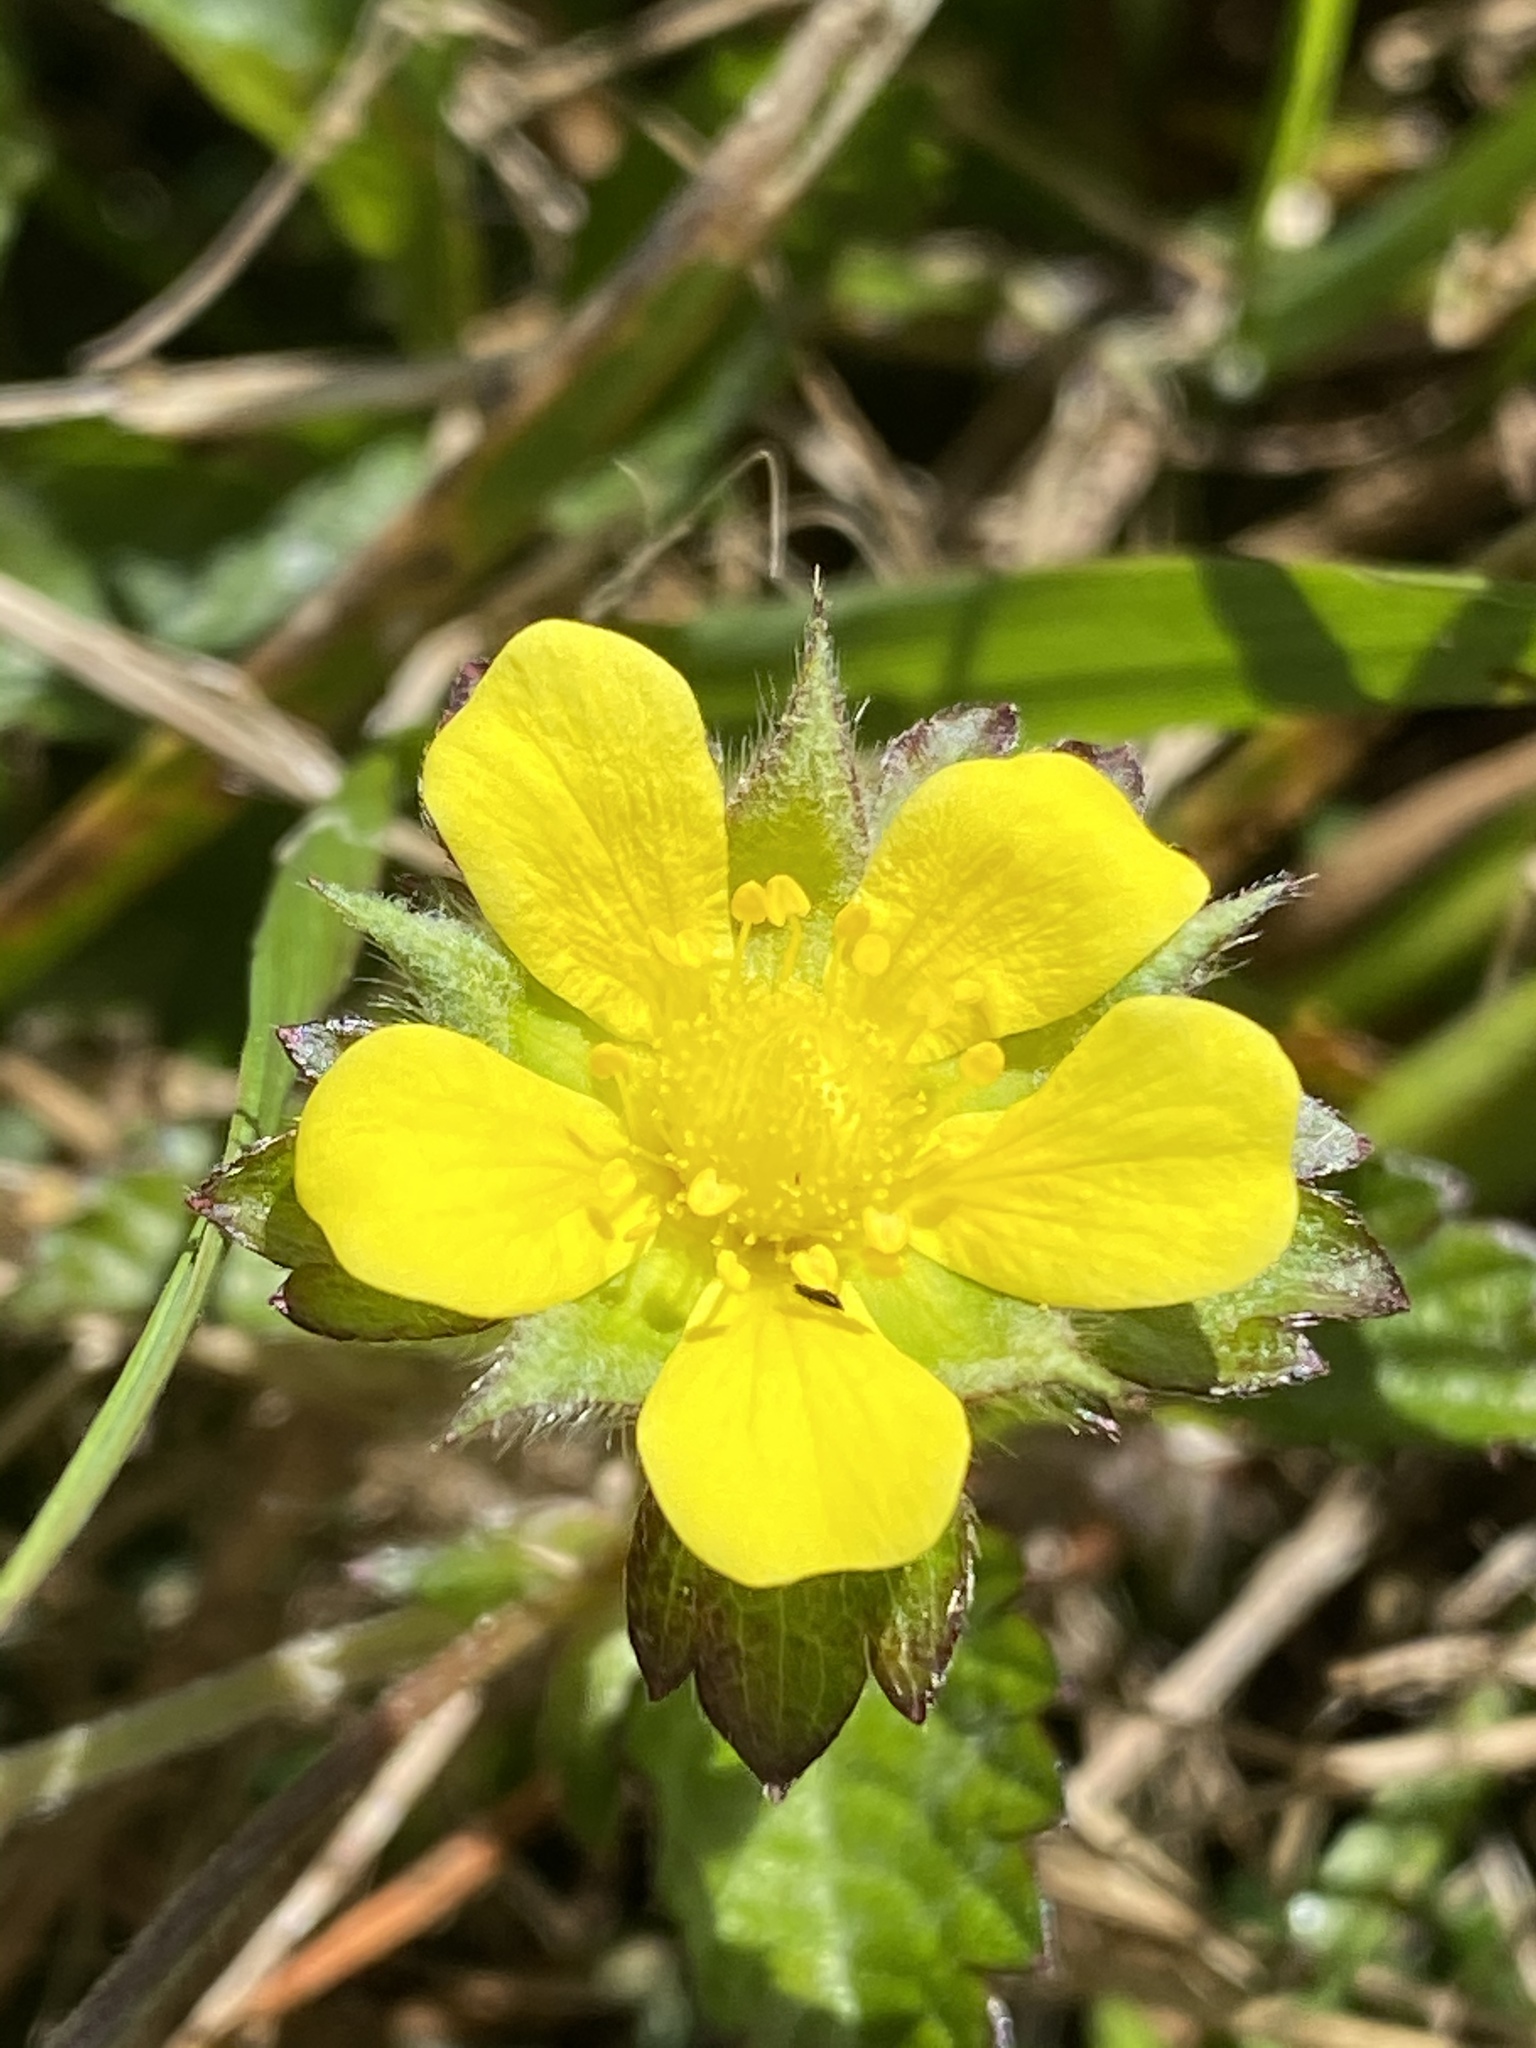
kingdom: Plantae
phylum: Tracheophyta
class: Magnoliopsida
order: Rosales
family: Rosaceae
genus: Potentilla
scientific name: Potentilla indica
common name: Yellow-flowered strawberry
